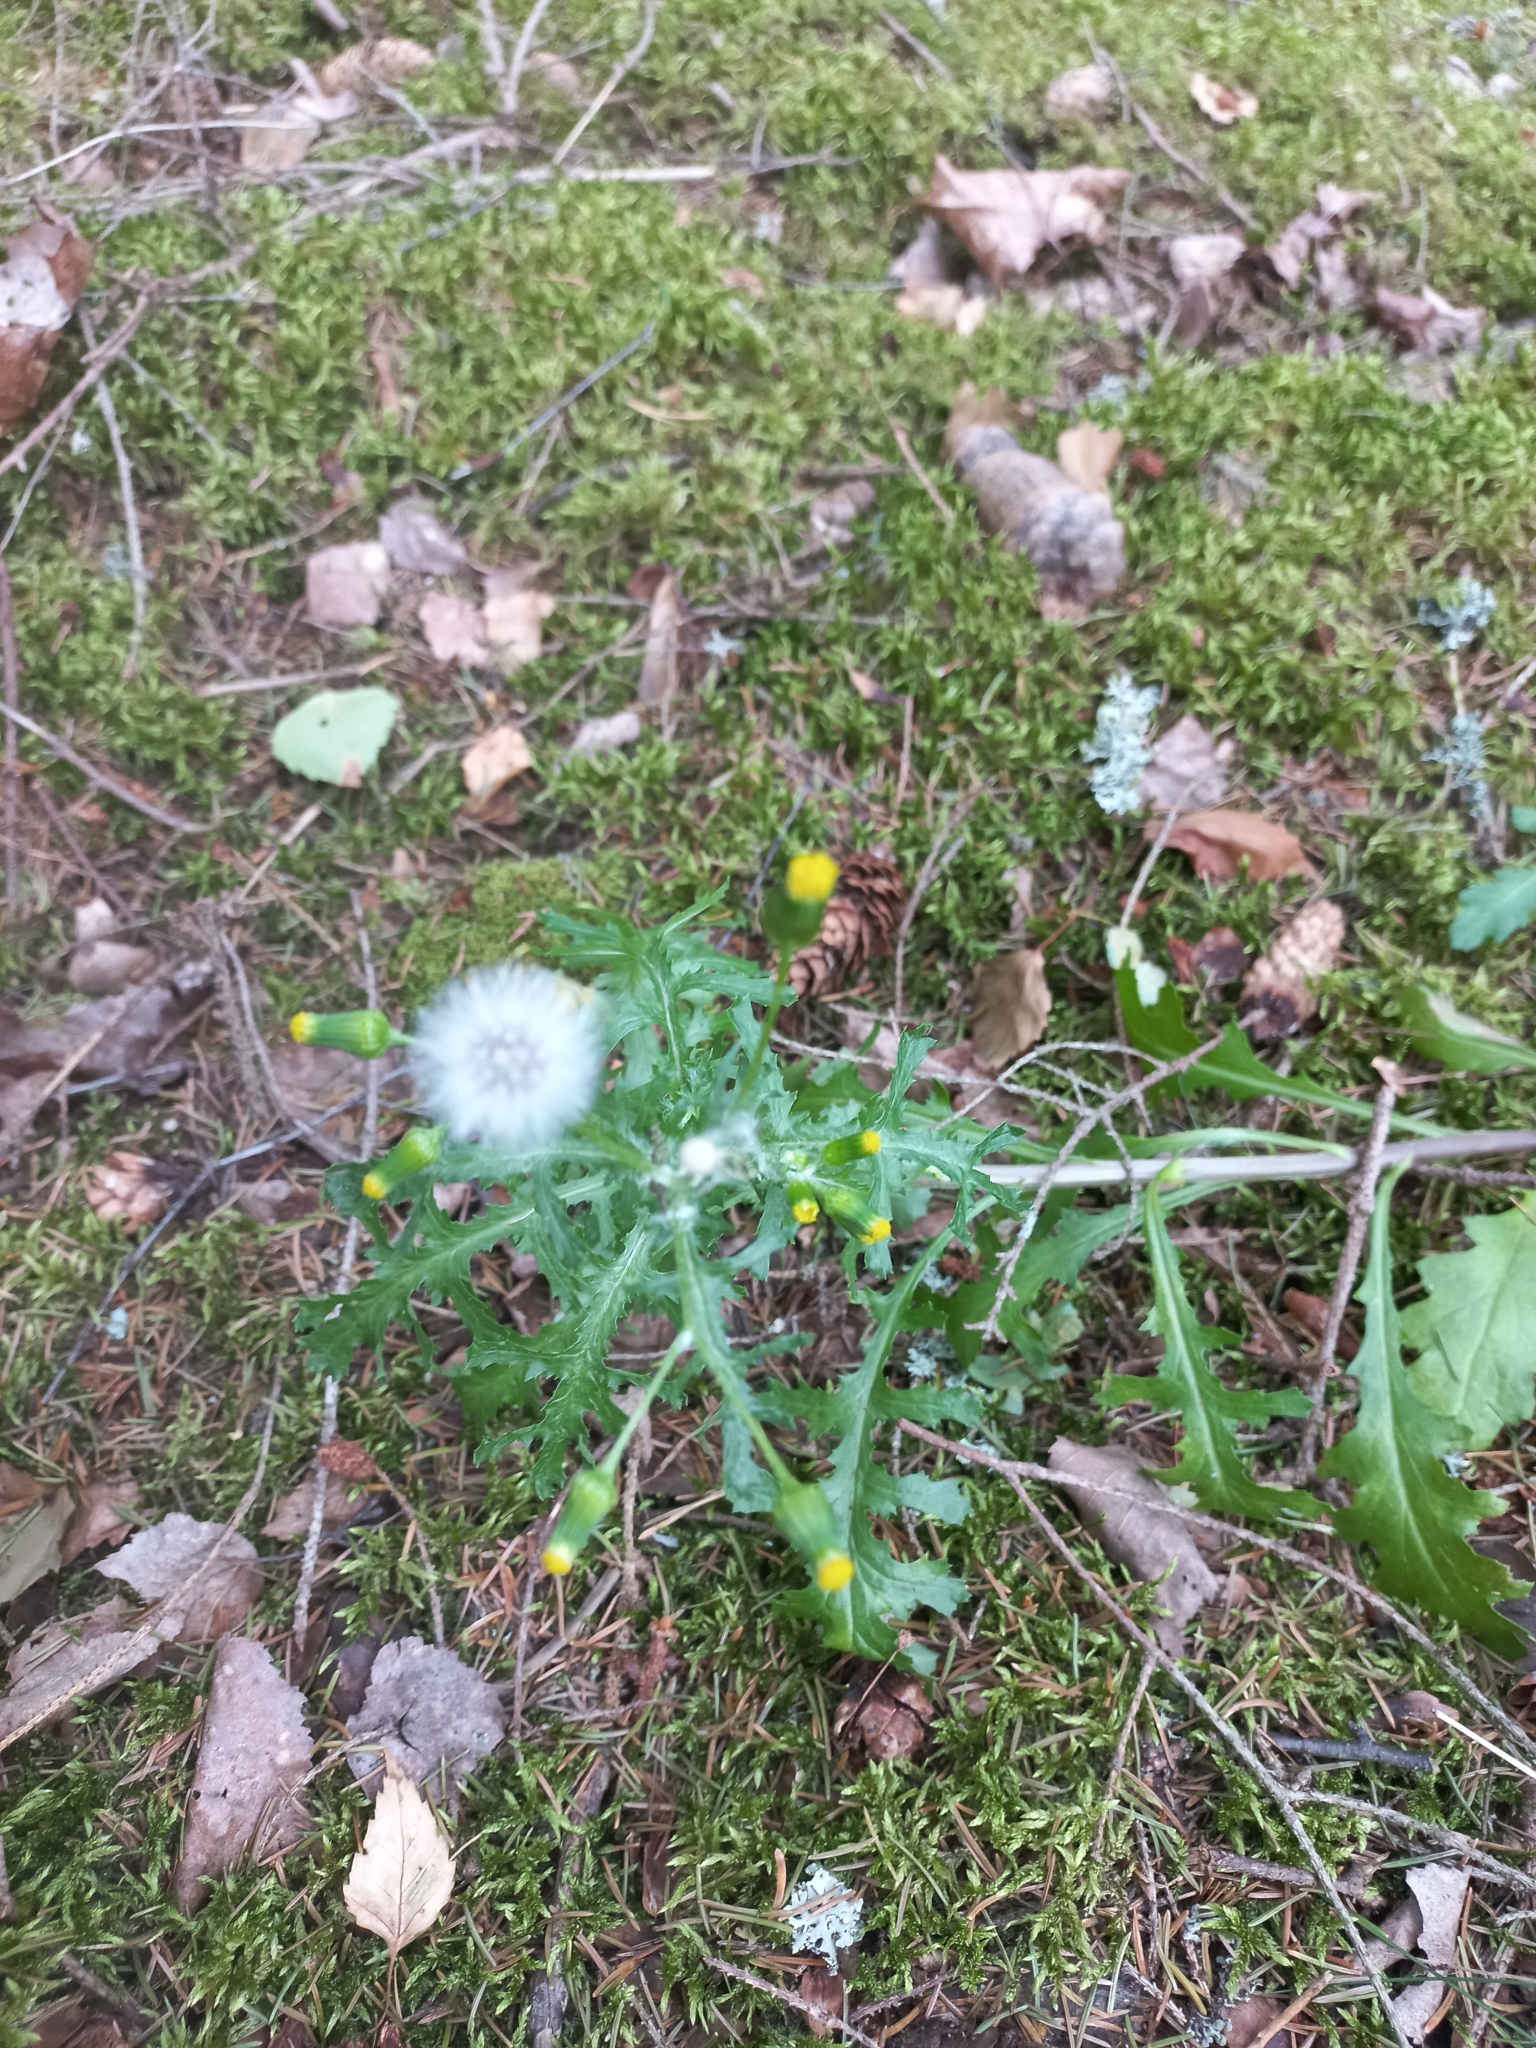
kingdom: Plantae
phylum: Tracheophyta
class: Magnoliopsida
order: Asterales
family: Asteraceae
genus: Senecio
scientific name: Senecio vulgaris
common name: Old-man-in-the-spring
